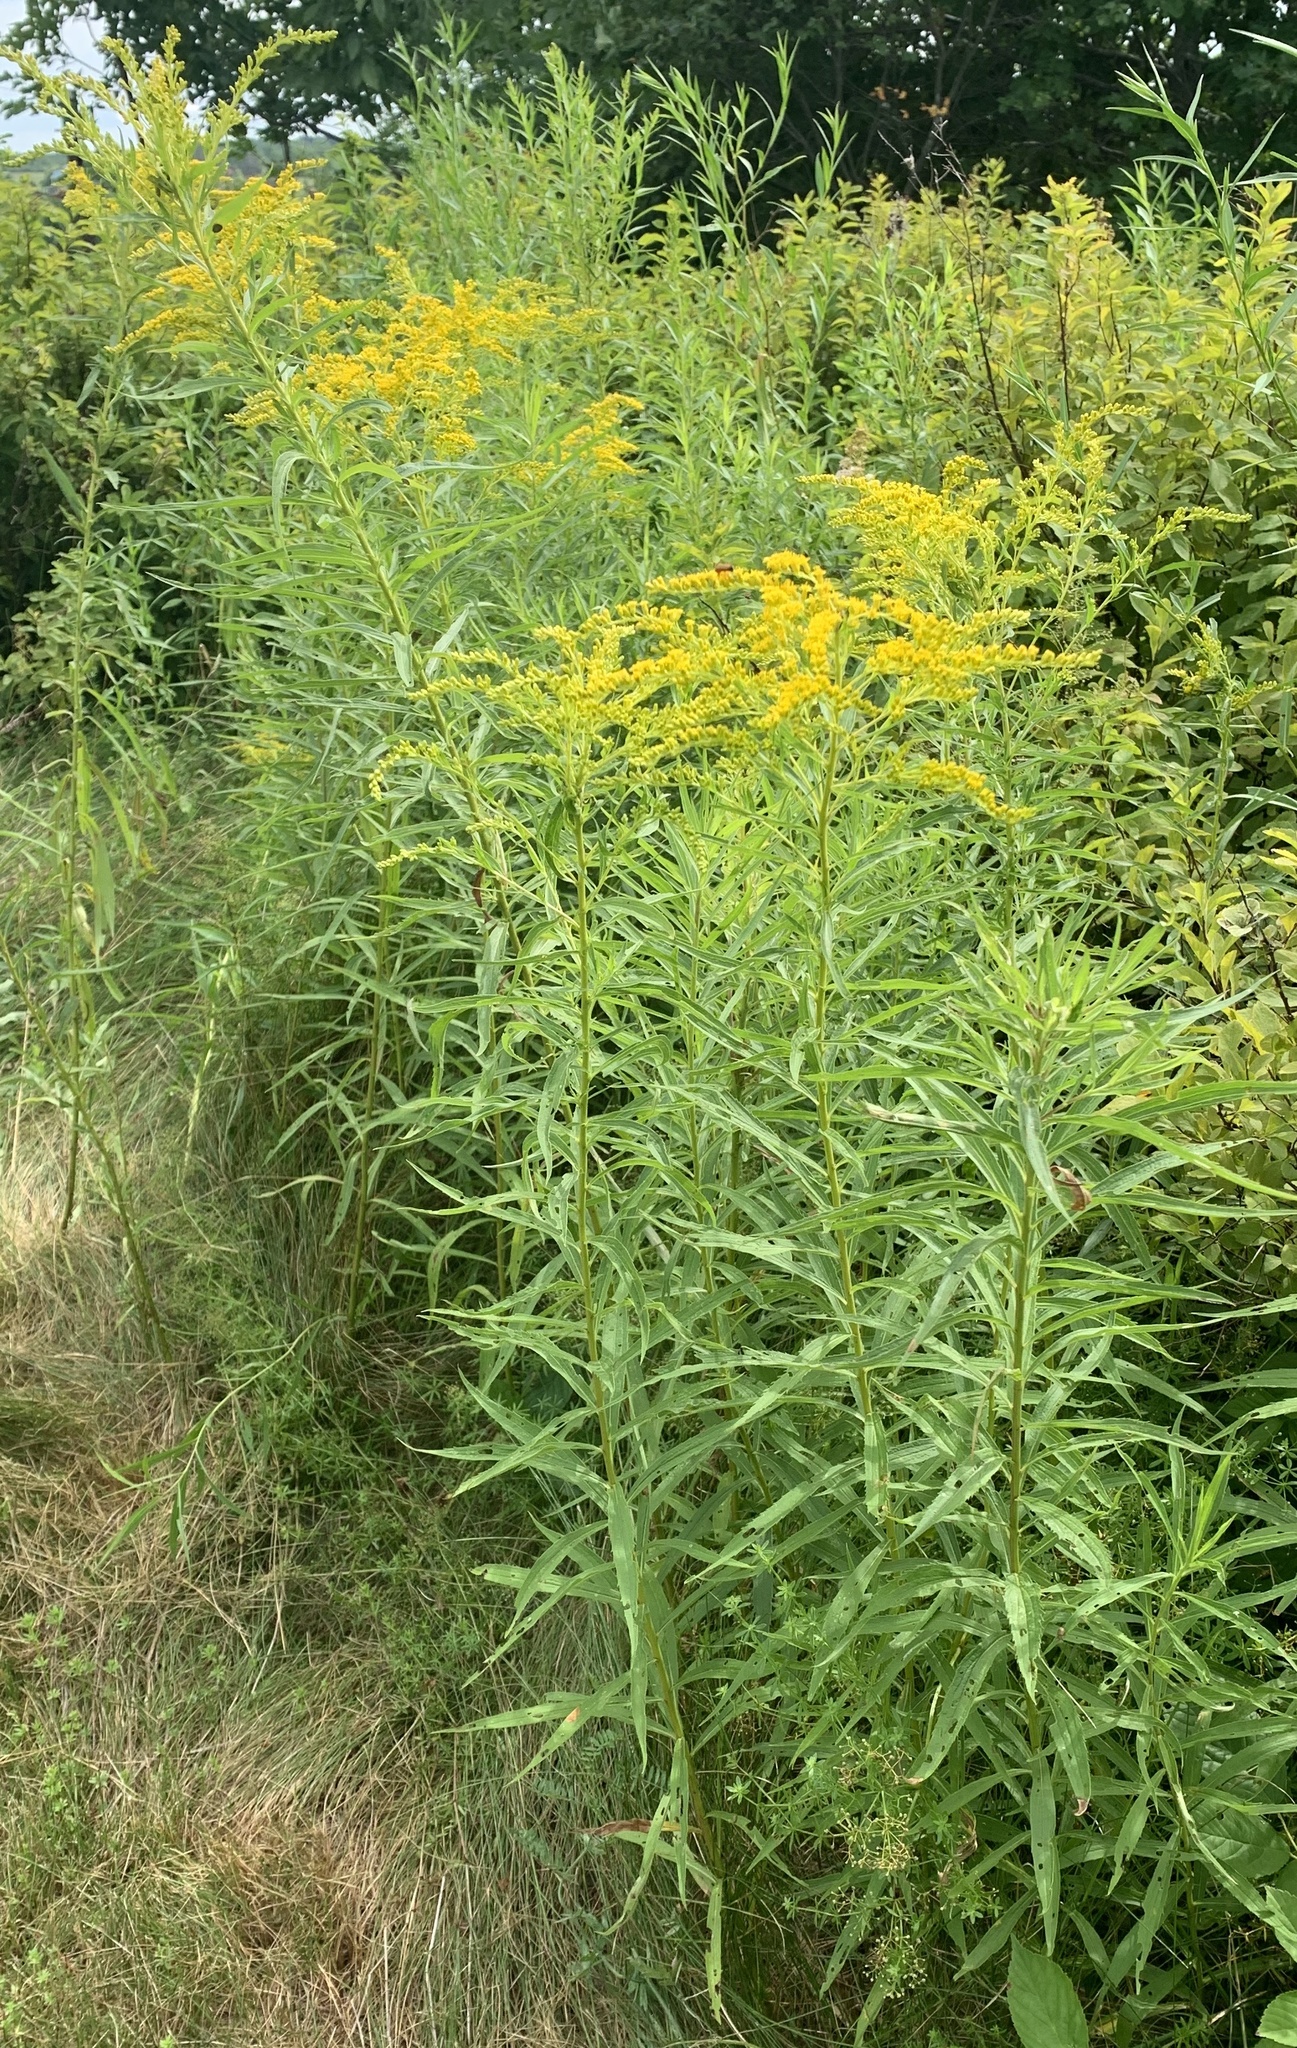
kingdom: Plantae
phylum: Tracheophyta
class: Magnoliopsida
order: Asterales
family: Asteraceae
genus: Solidago
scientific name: Solidago canadensis
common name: Canada goldenrod
